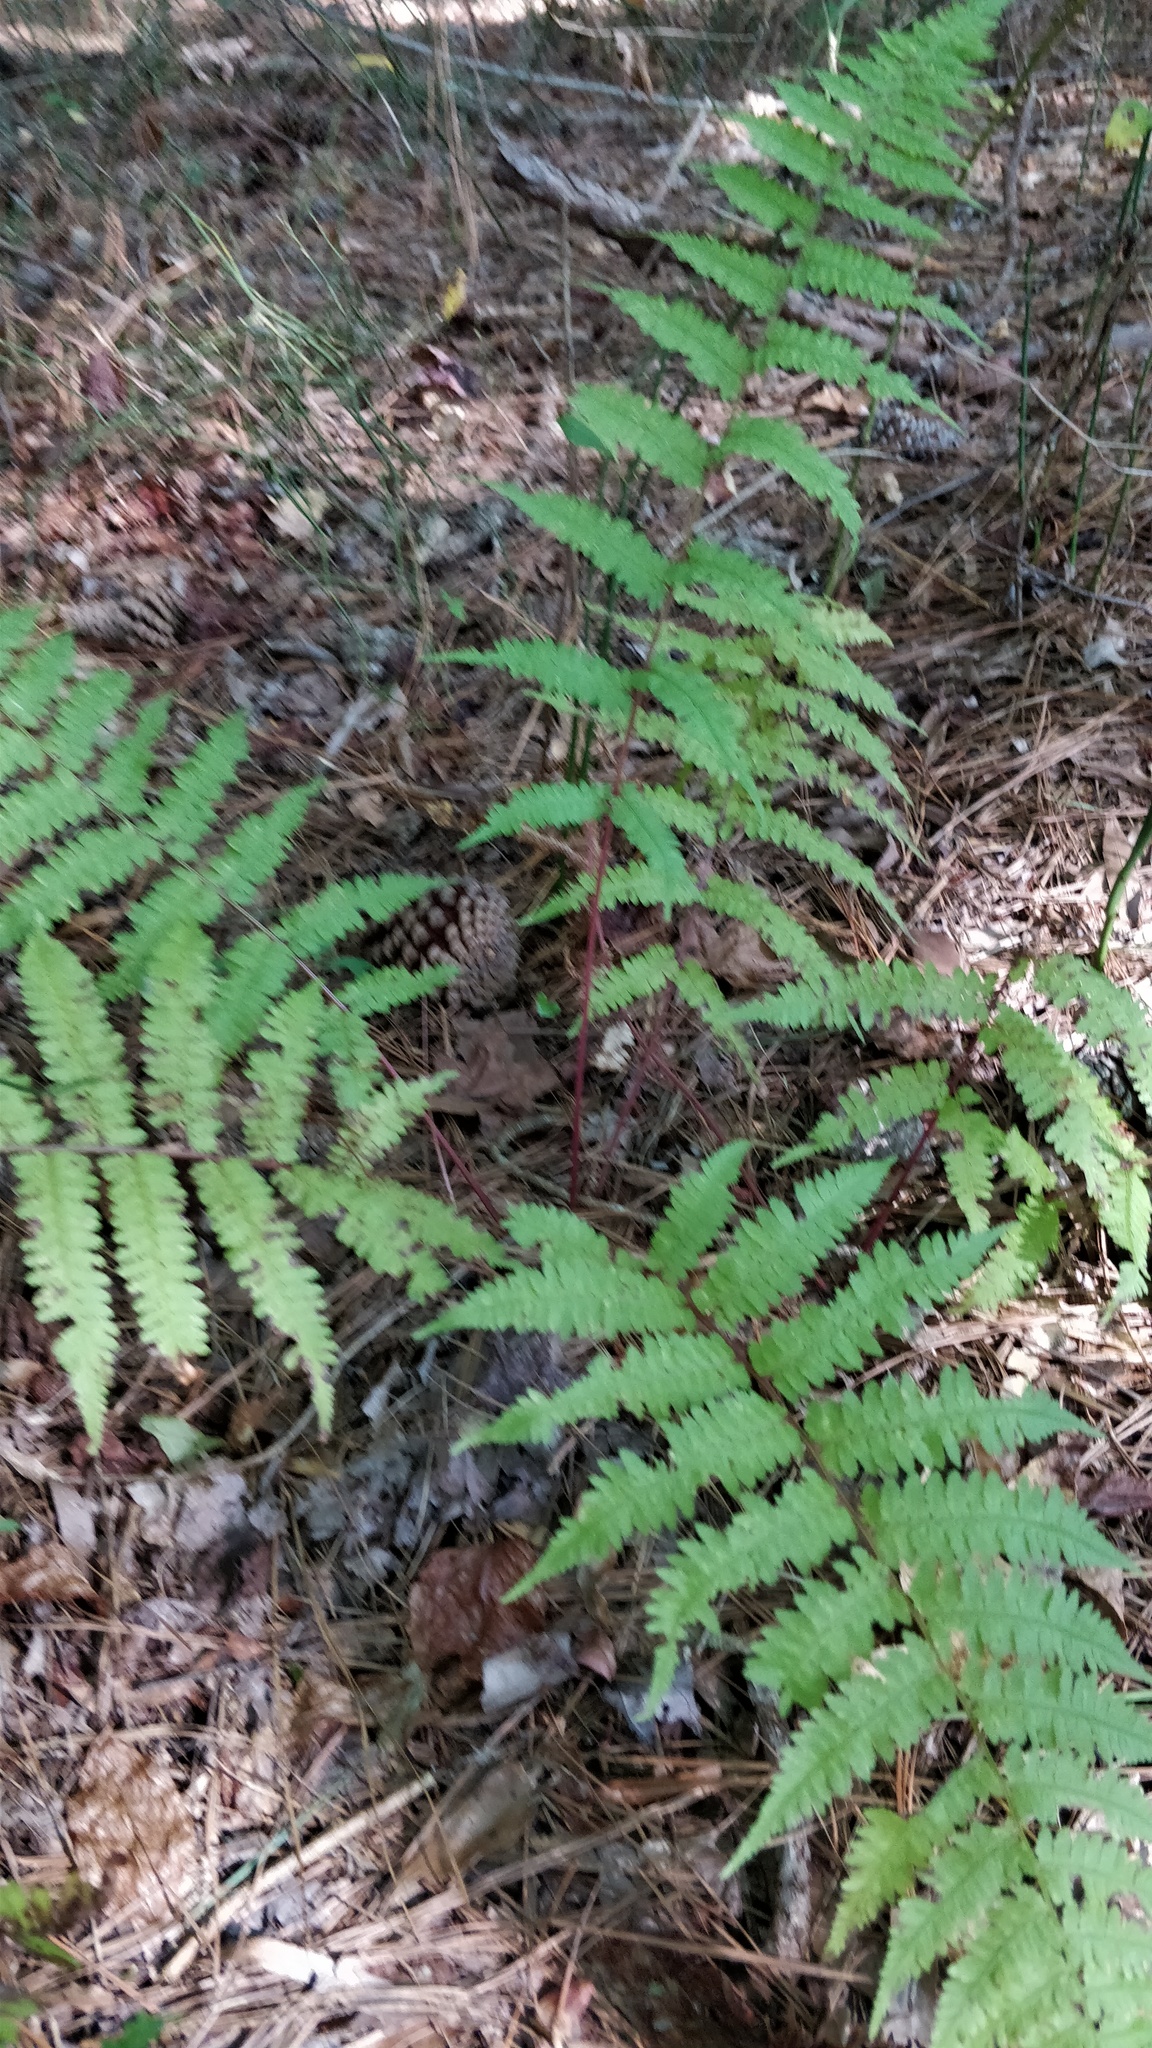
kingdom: Plantae
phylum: Tracheophyta
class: Polypodiopsida
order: Polypodiales
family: Athyriaceae
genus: Athyrium
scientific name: Athyrium asplenioides
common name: Southern lady fern
